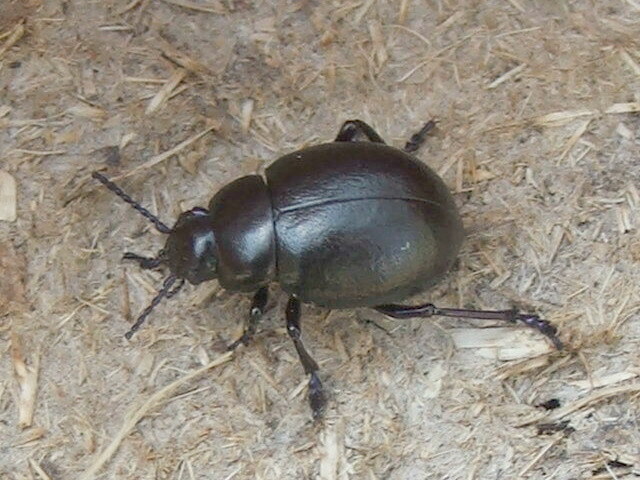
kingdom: Animalia
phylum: Arthropoda
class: Insecta
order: Coleoptera
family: Chrysomelidae
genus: Timarcha
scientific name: Timarcha tenebricosa
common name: Bloody-nosed beetle
